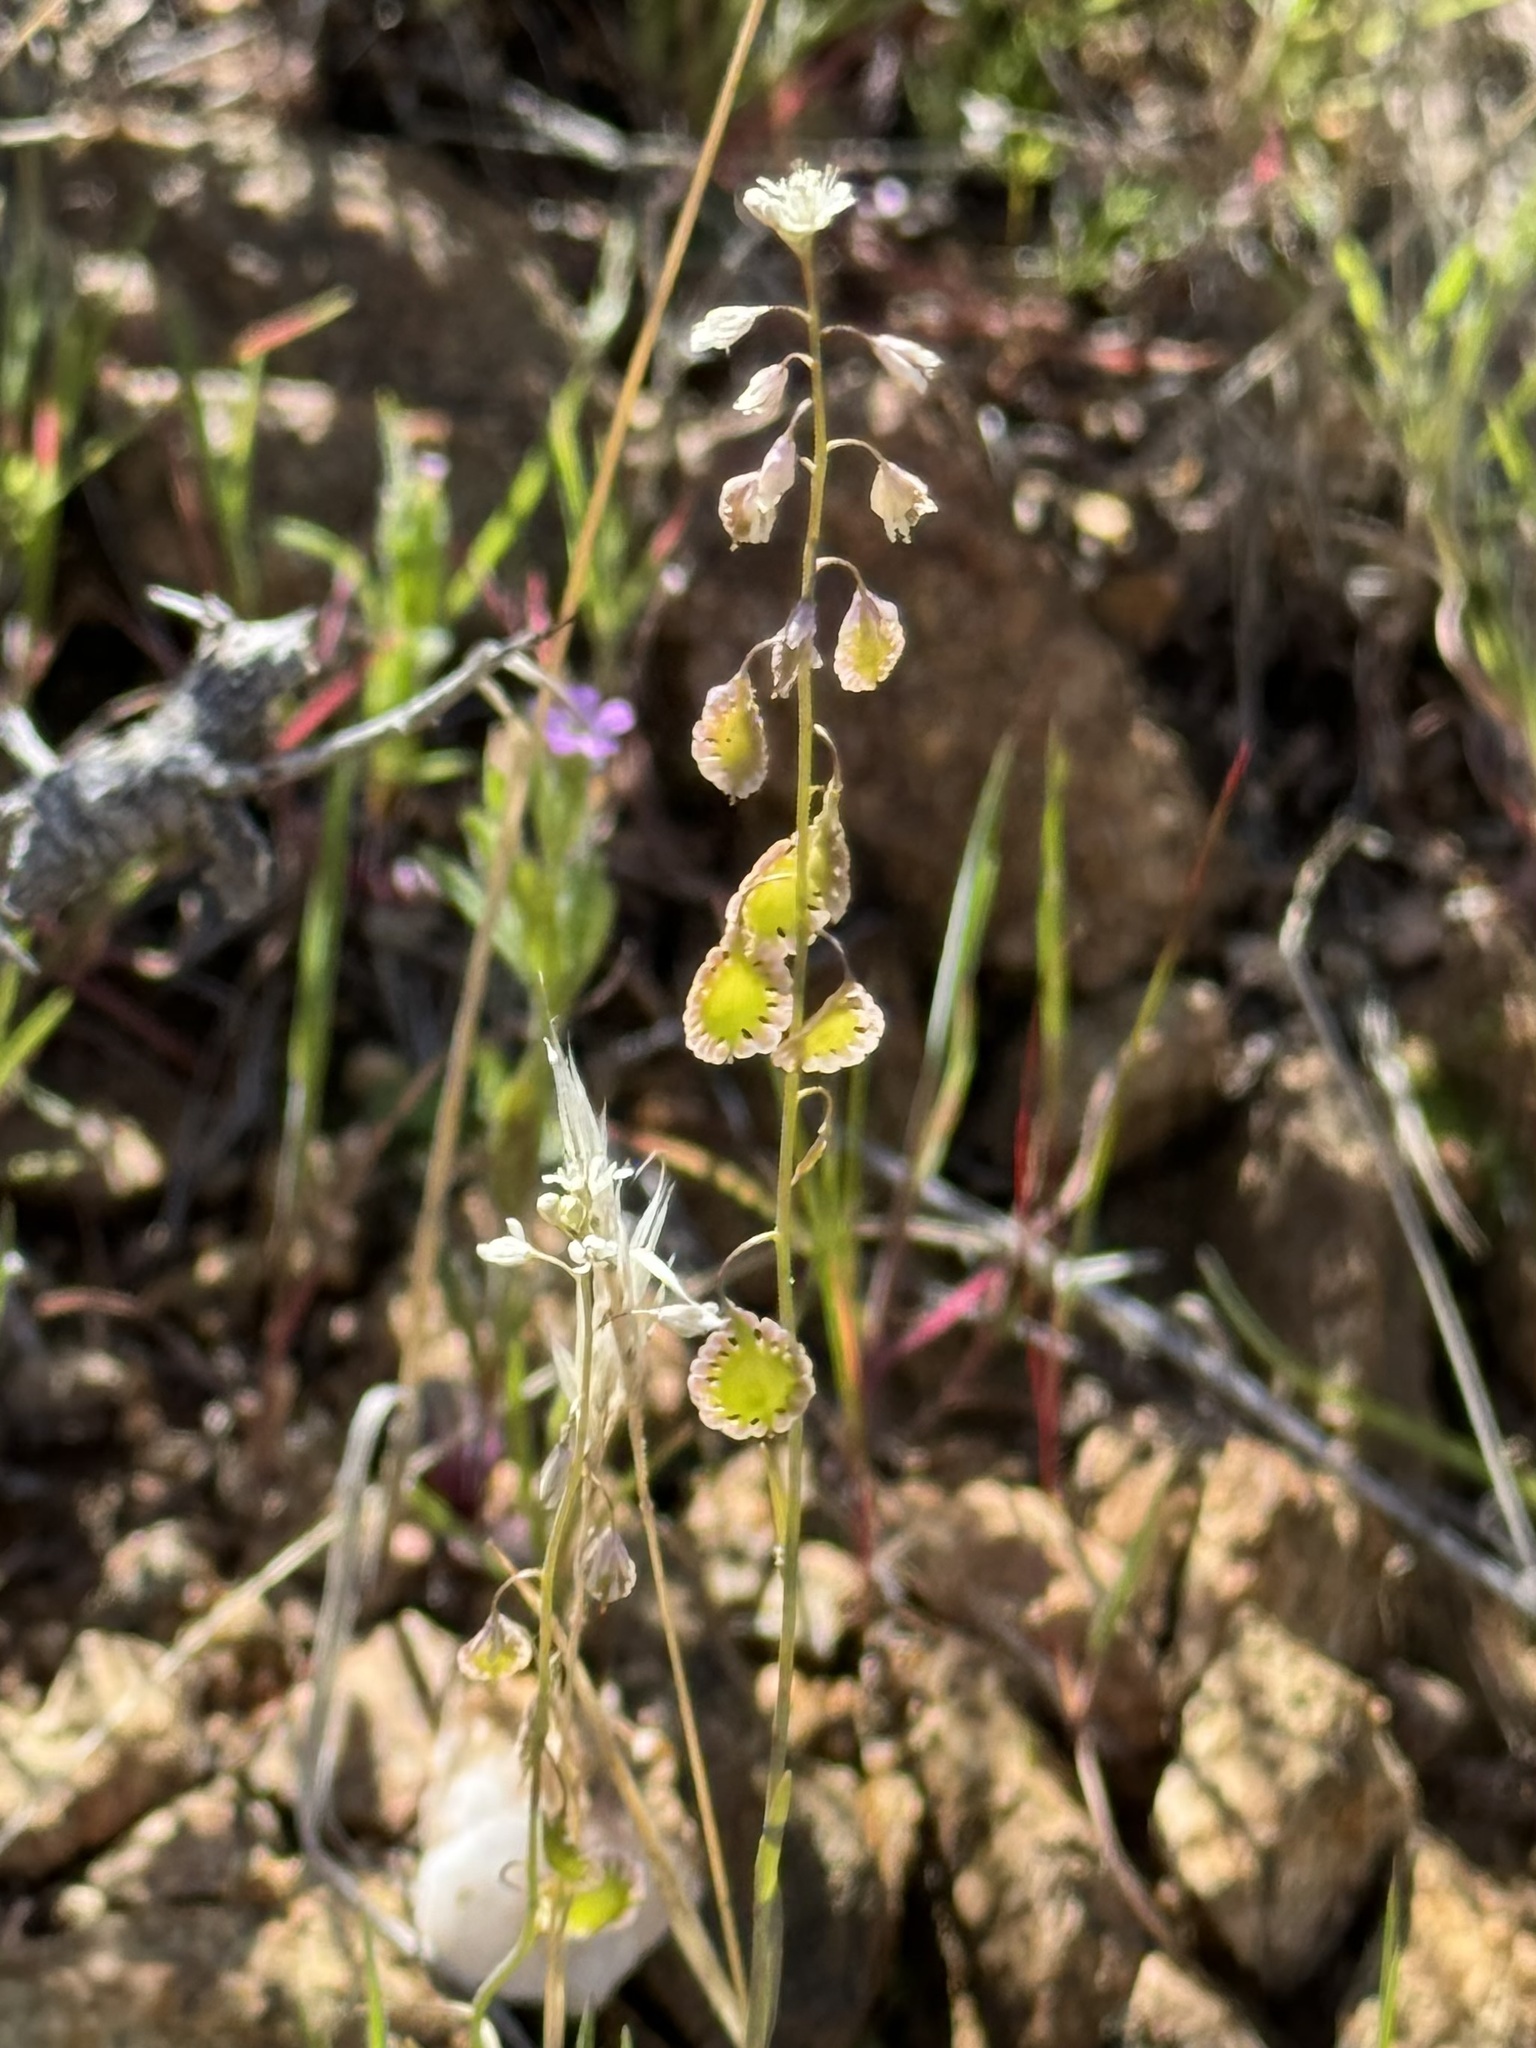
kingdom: Plantae
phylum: Tracheophyta
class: Magnoliopsida
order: Brassicales
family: Brassicaceae
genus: Thysanocarpus
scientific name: Thysanocarpus curvipes
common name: Sand fringepod
